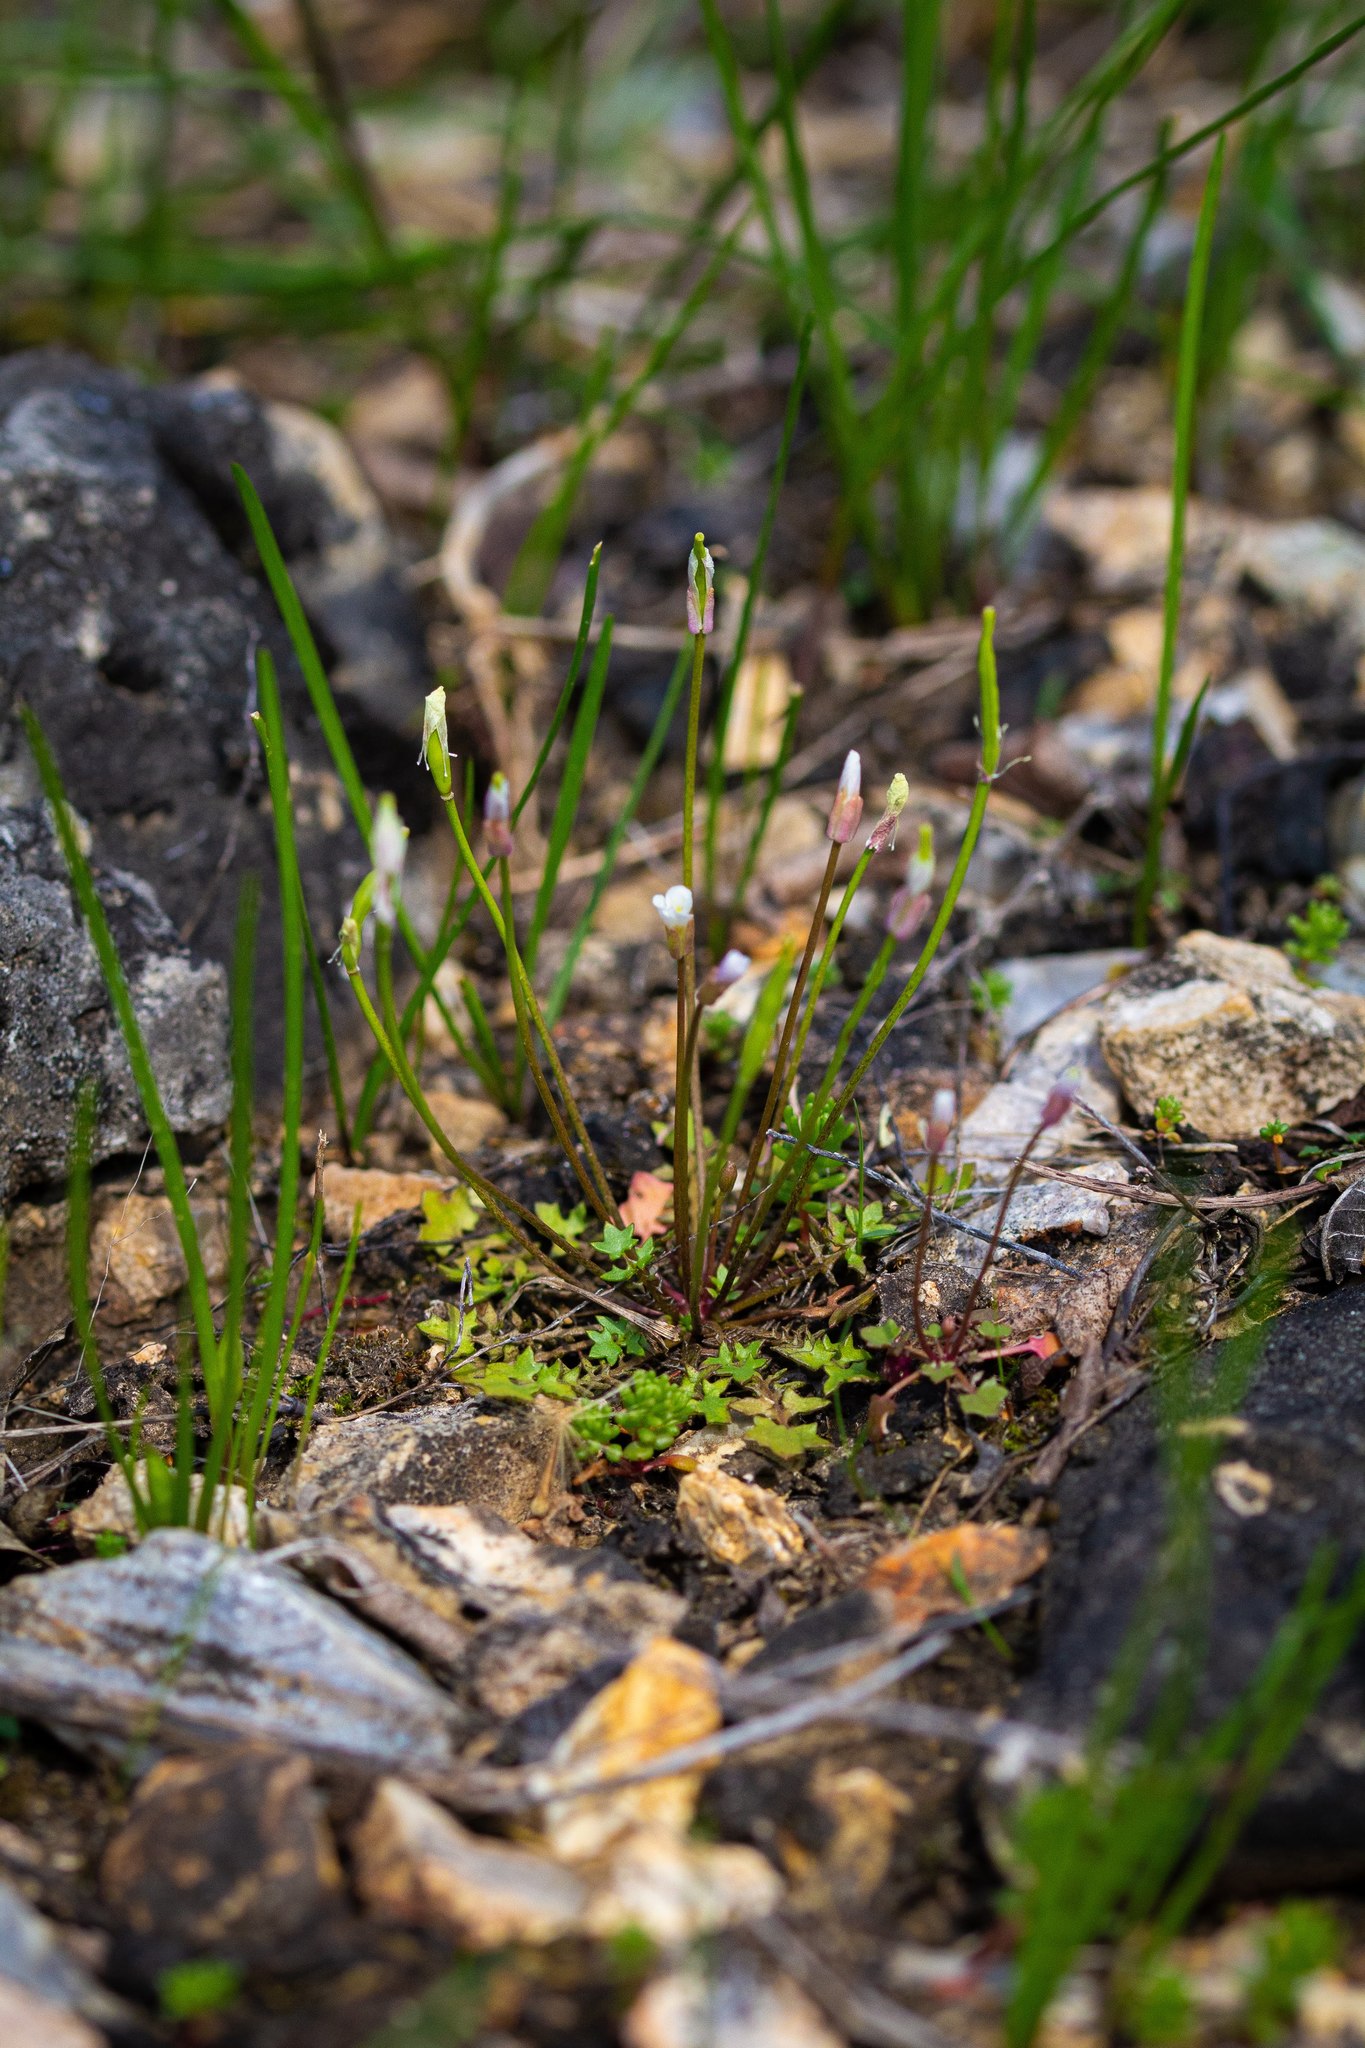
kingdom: Plantae
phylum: Tracheophyta
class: Magnoliopsida
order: Brassicales
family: Brassicaceae
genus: Leavenworthia
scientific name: Leavenworthia uniflora
